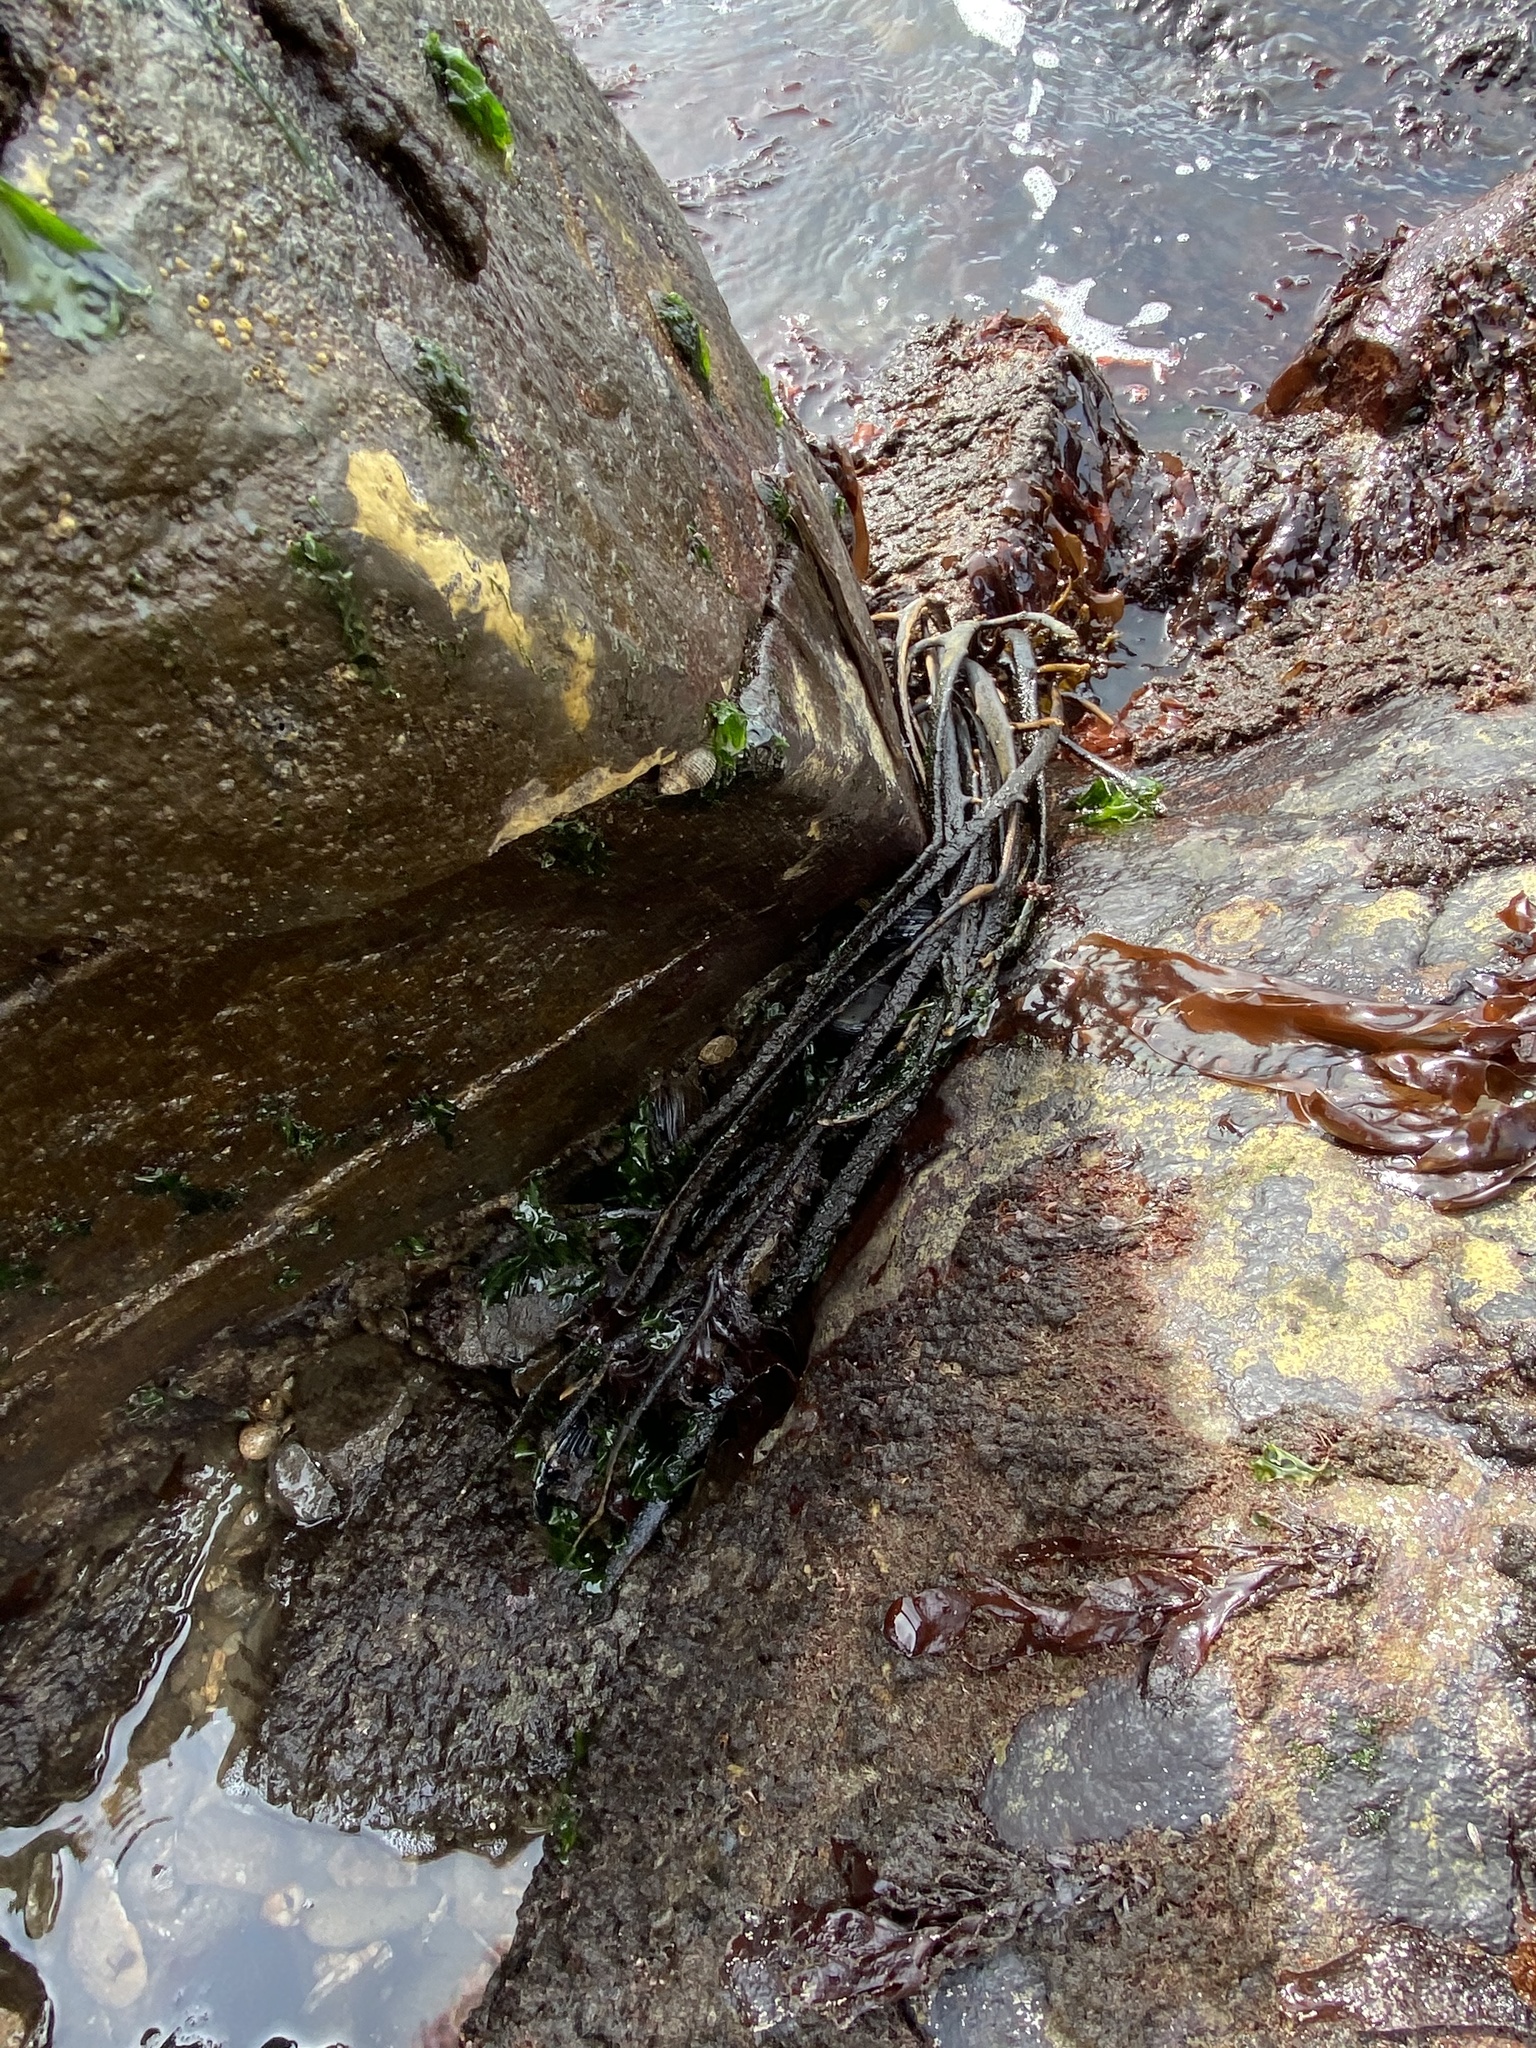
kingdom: Chromista
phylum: Ochrophyta
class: Phaeophyceae
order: Laminariales
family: Lessoniaceae
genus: Egregia
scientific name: Egregia menziesii
